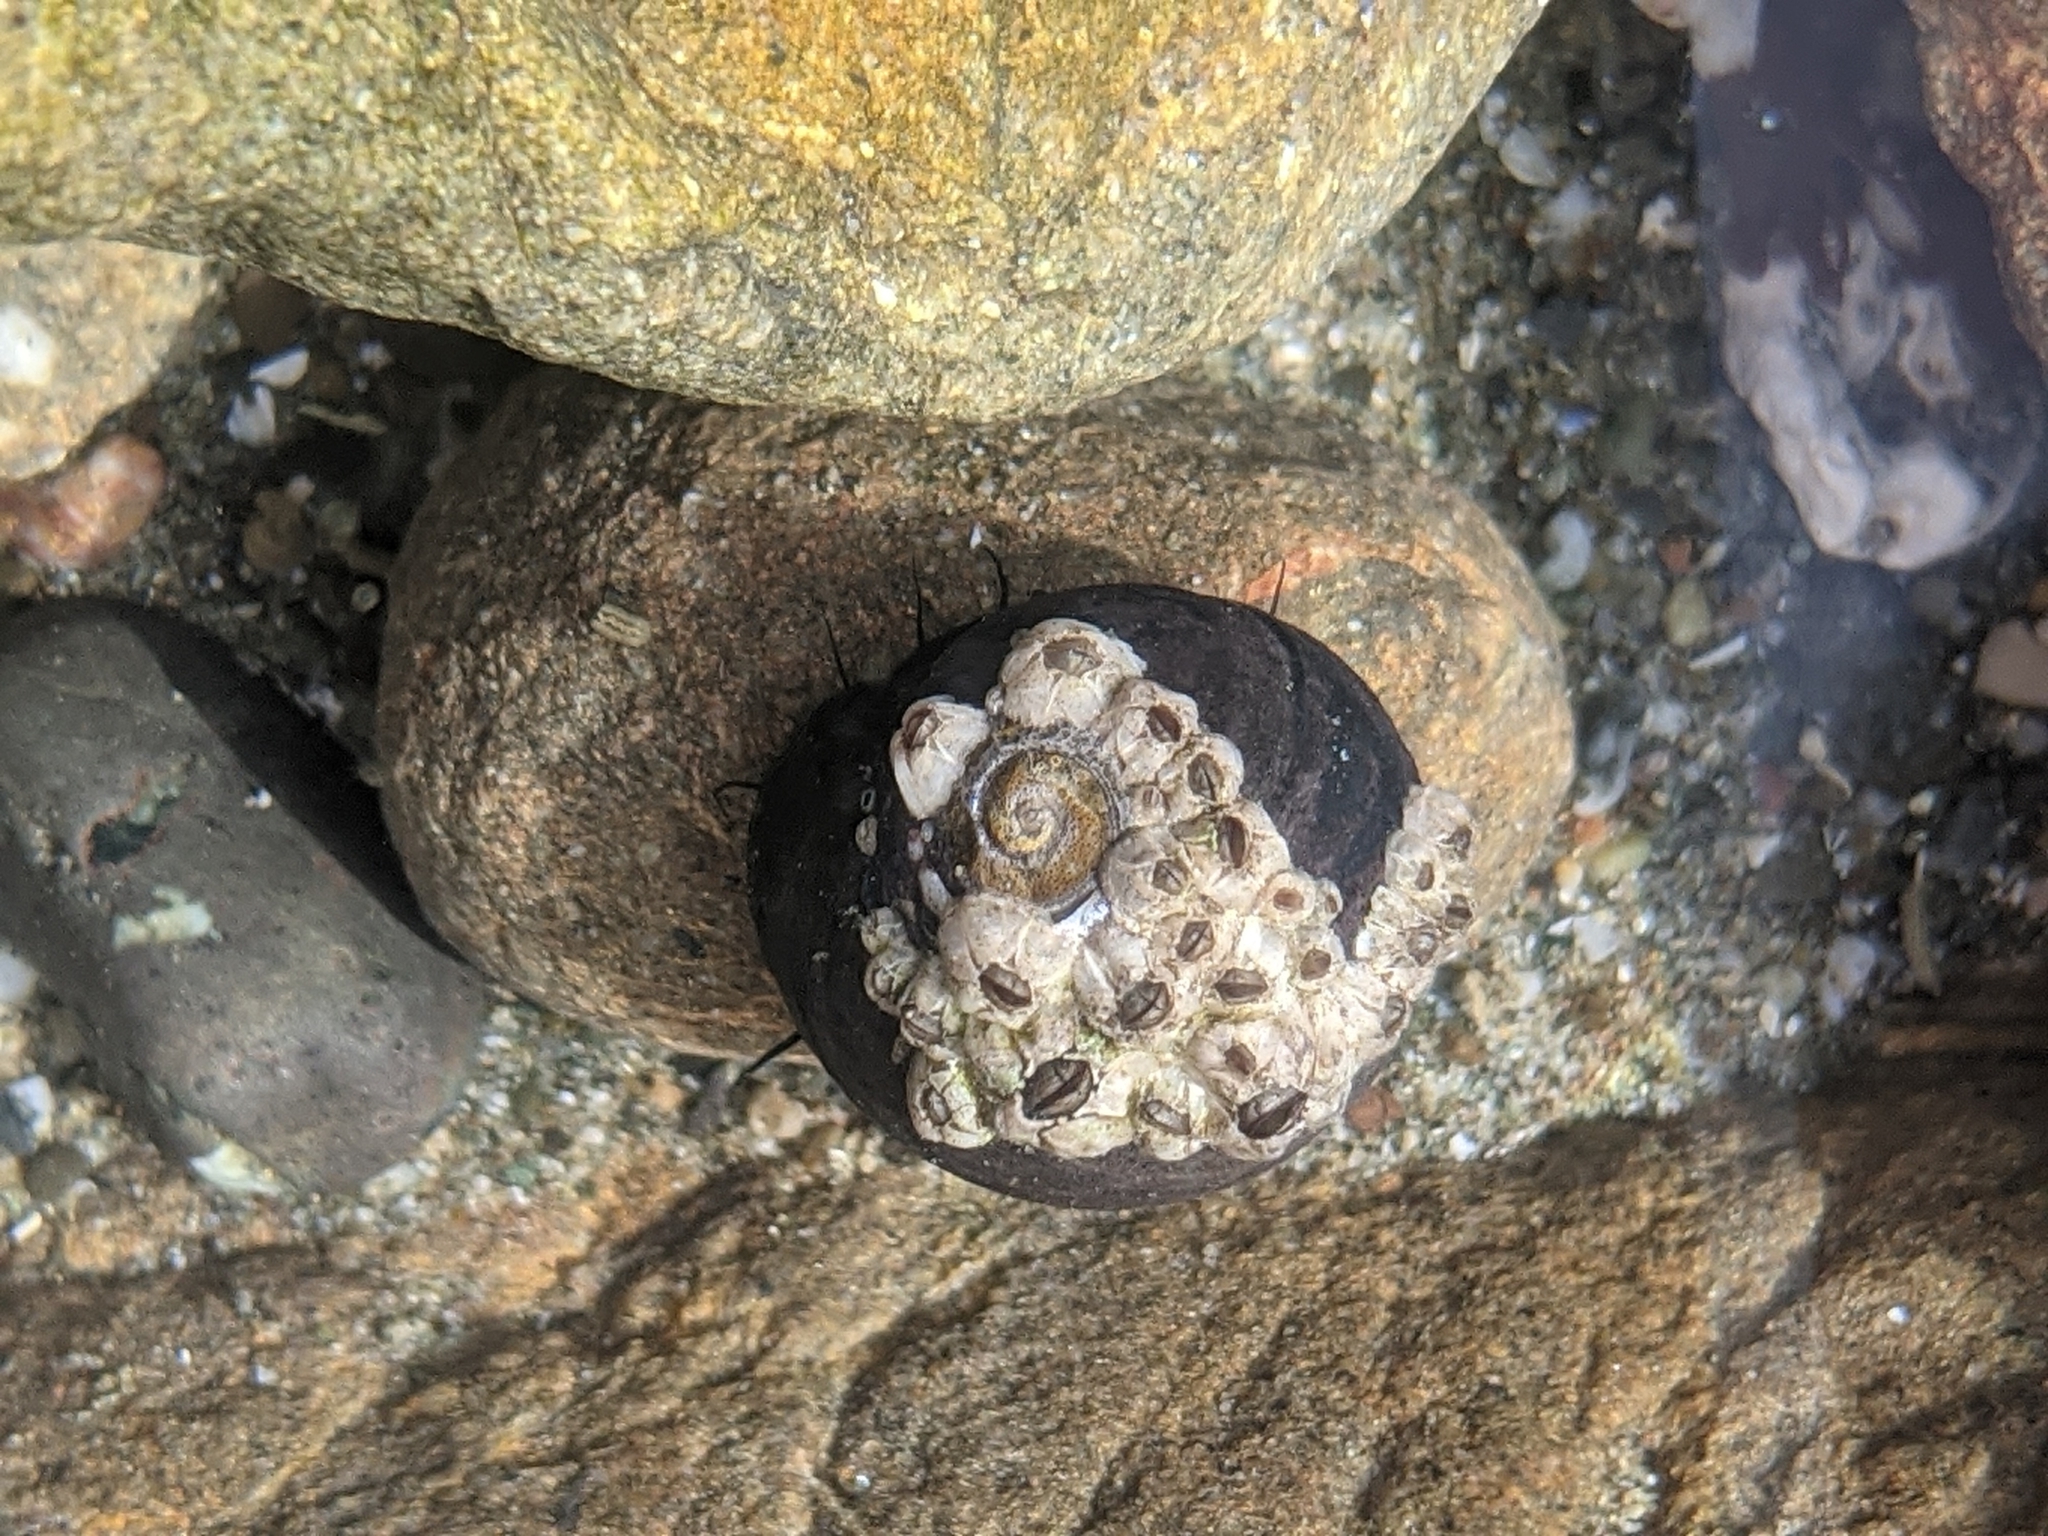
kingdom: Animalia
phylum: Mollusca
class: Gastropoda
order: Trochida
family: Tegulidae
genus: Tegula
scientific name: Tegula funebralis
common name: Black tegula
